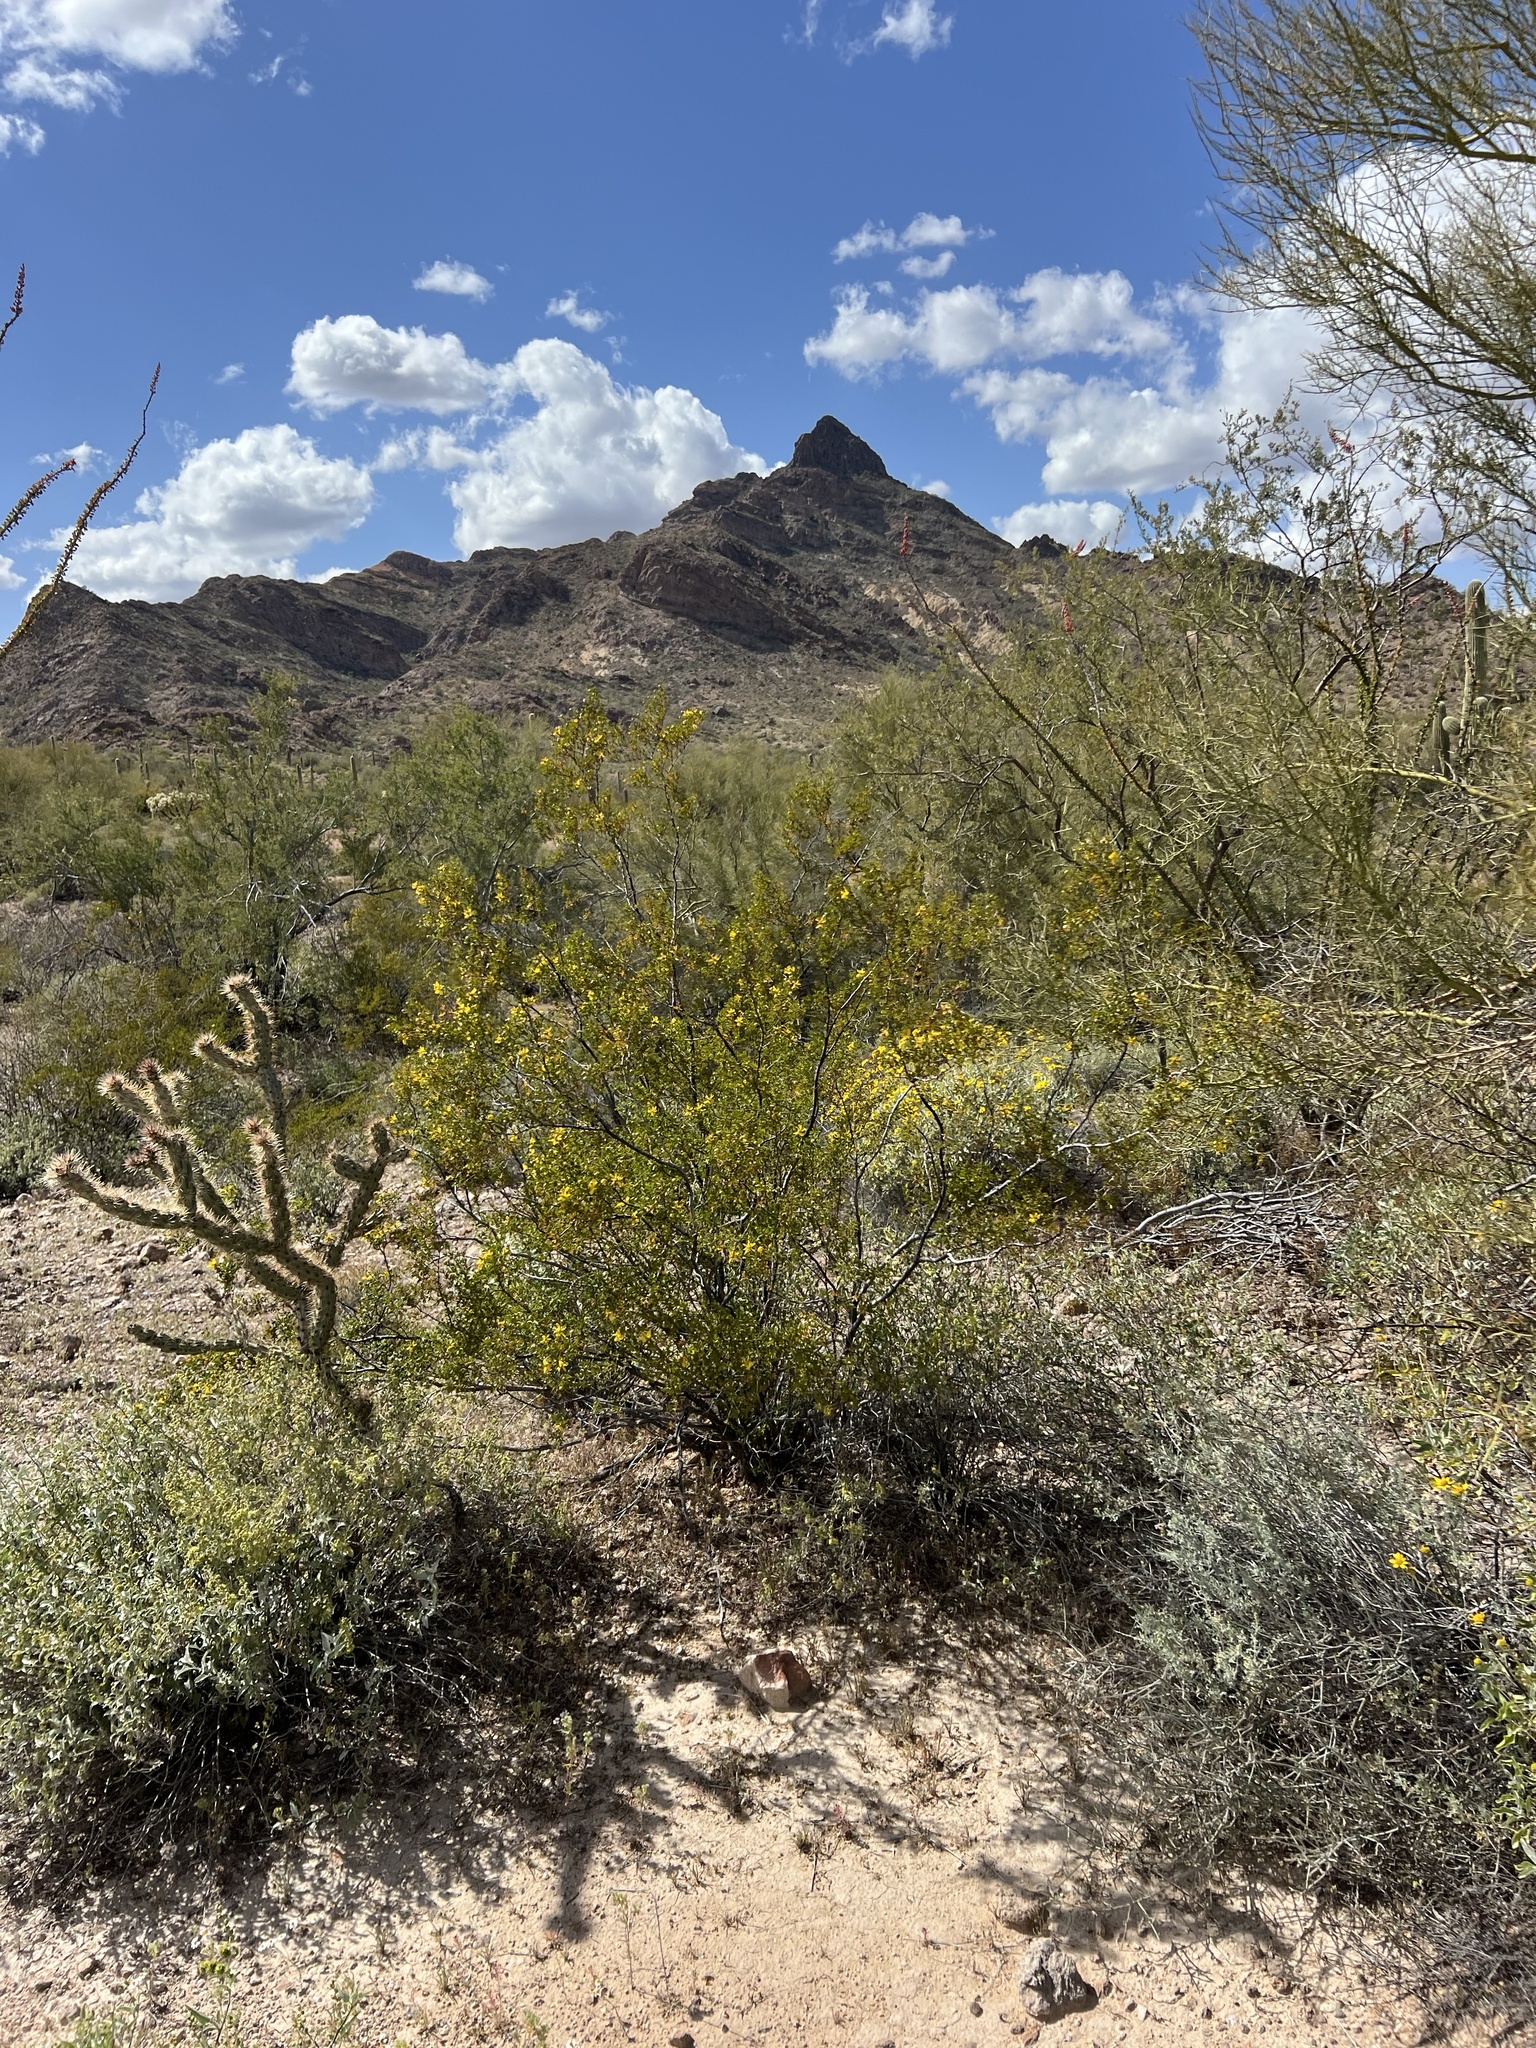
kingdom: Plantae
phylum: Tracheophyta
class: Magnoliopsida
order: Zygophyllales
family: Zygophyllaceae
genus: Larrea
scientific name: Larrea tridentata
